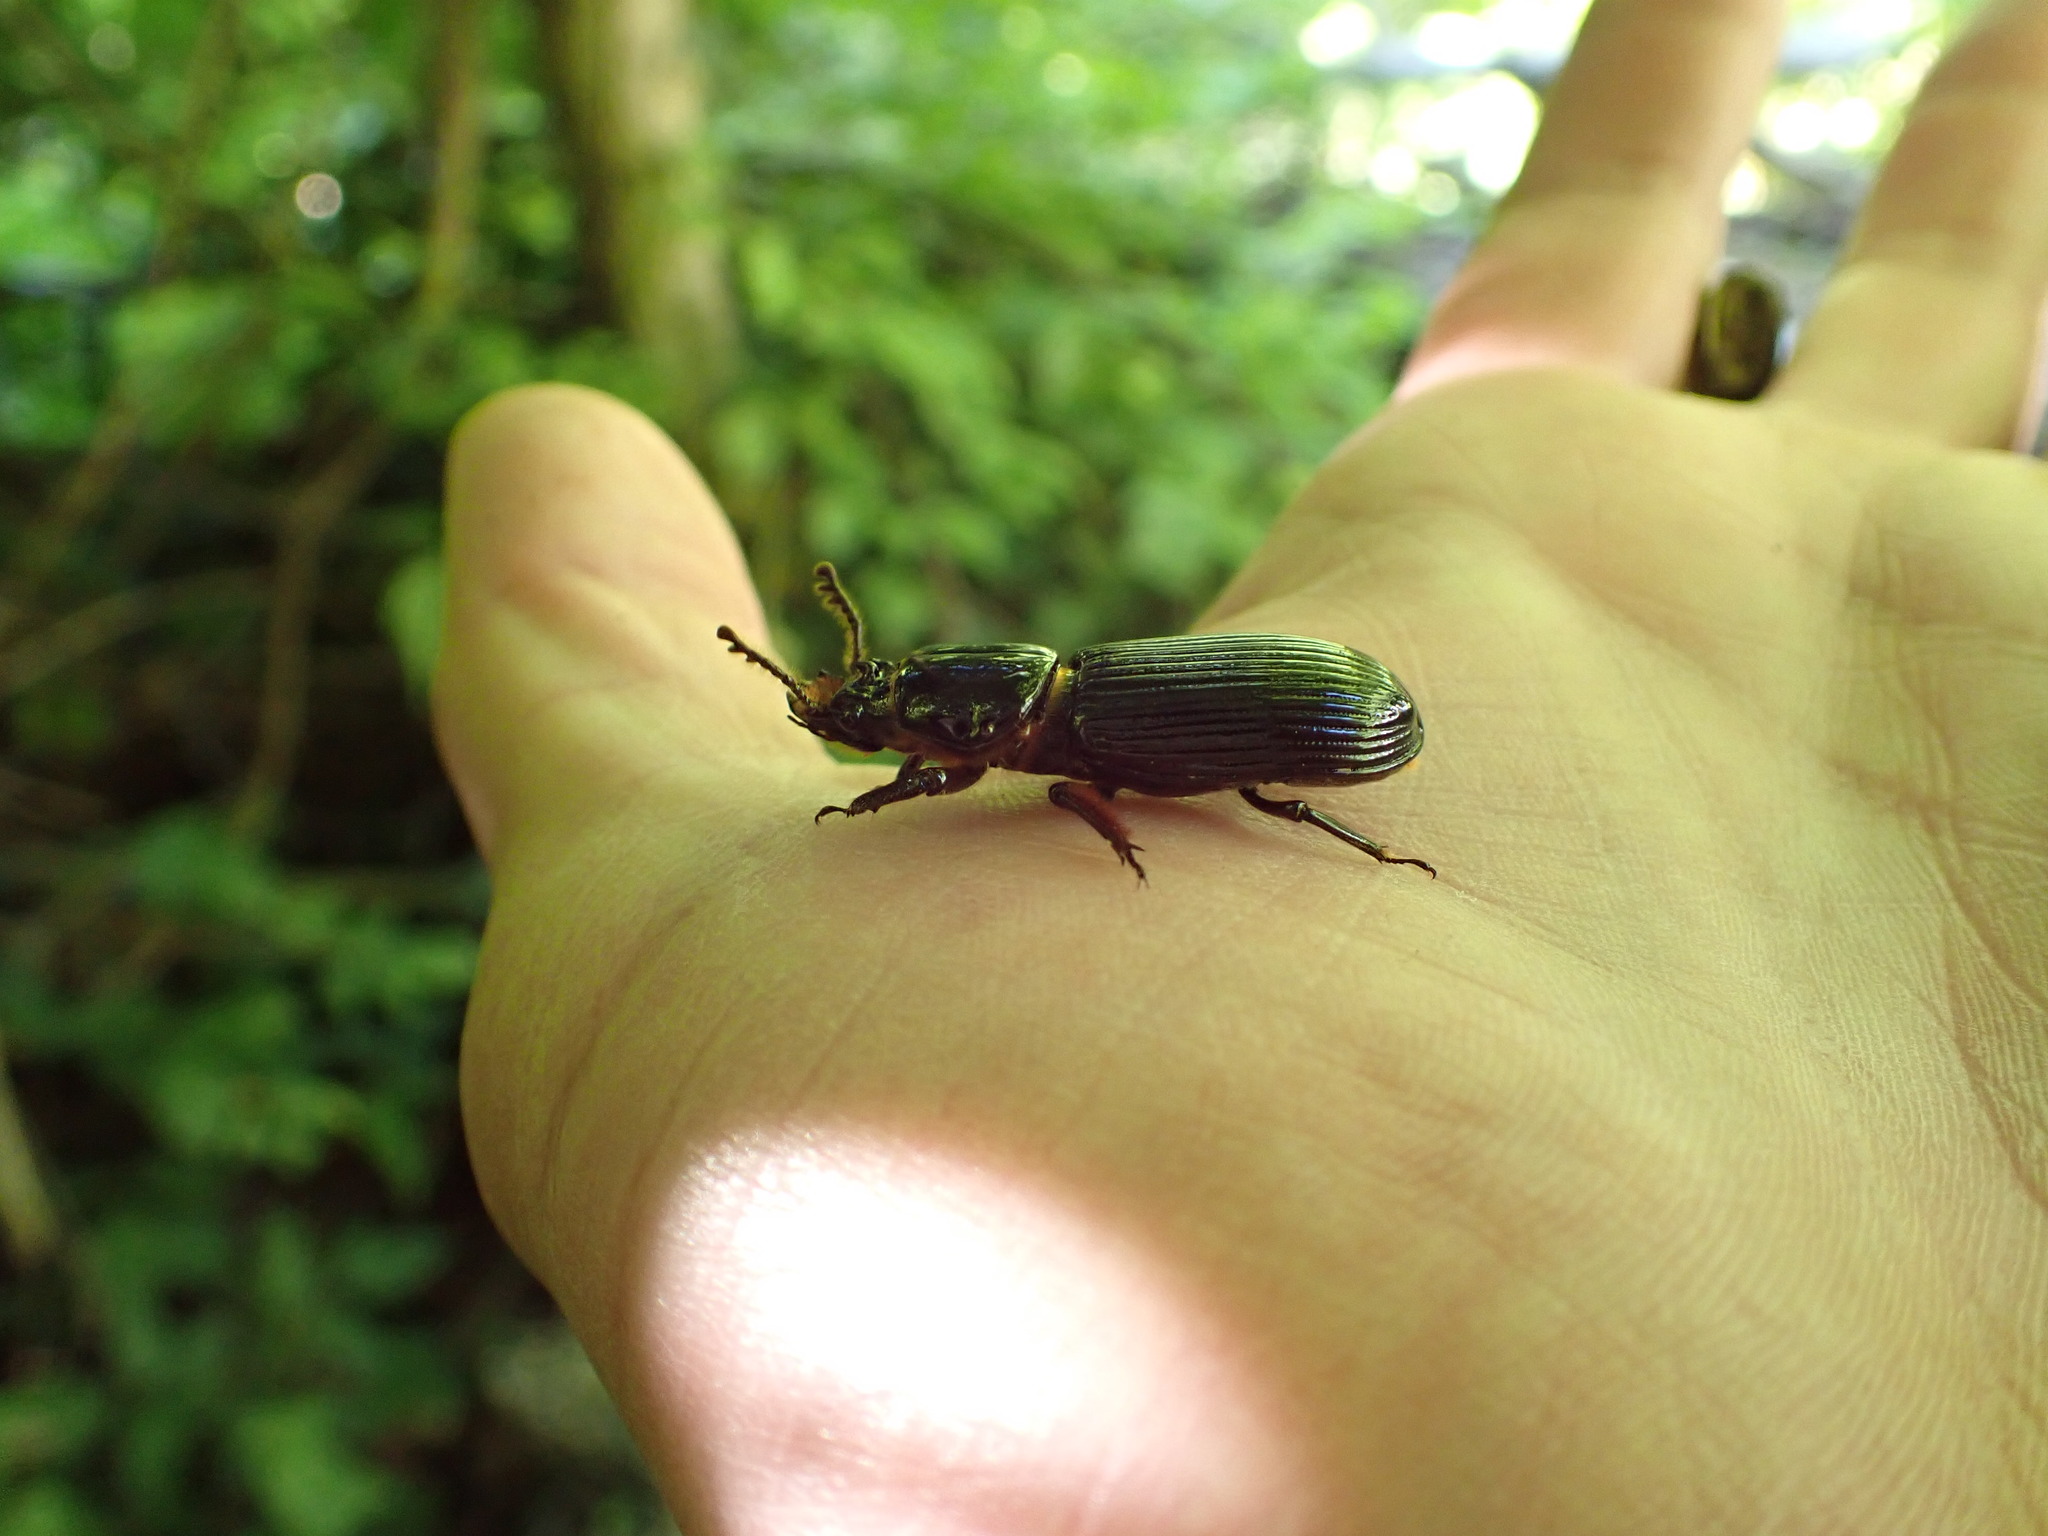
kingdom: Animalia
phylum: Arthropoda
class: Insecta
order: Coleoptera
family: Passalidae
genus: Odontotaenius
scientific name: Odontotaenius disjunctus
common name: Patent leather beetle
